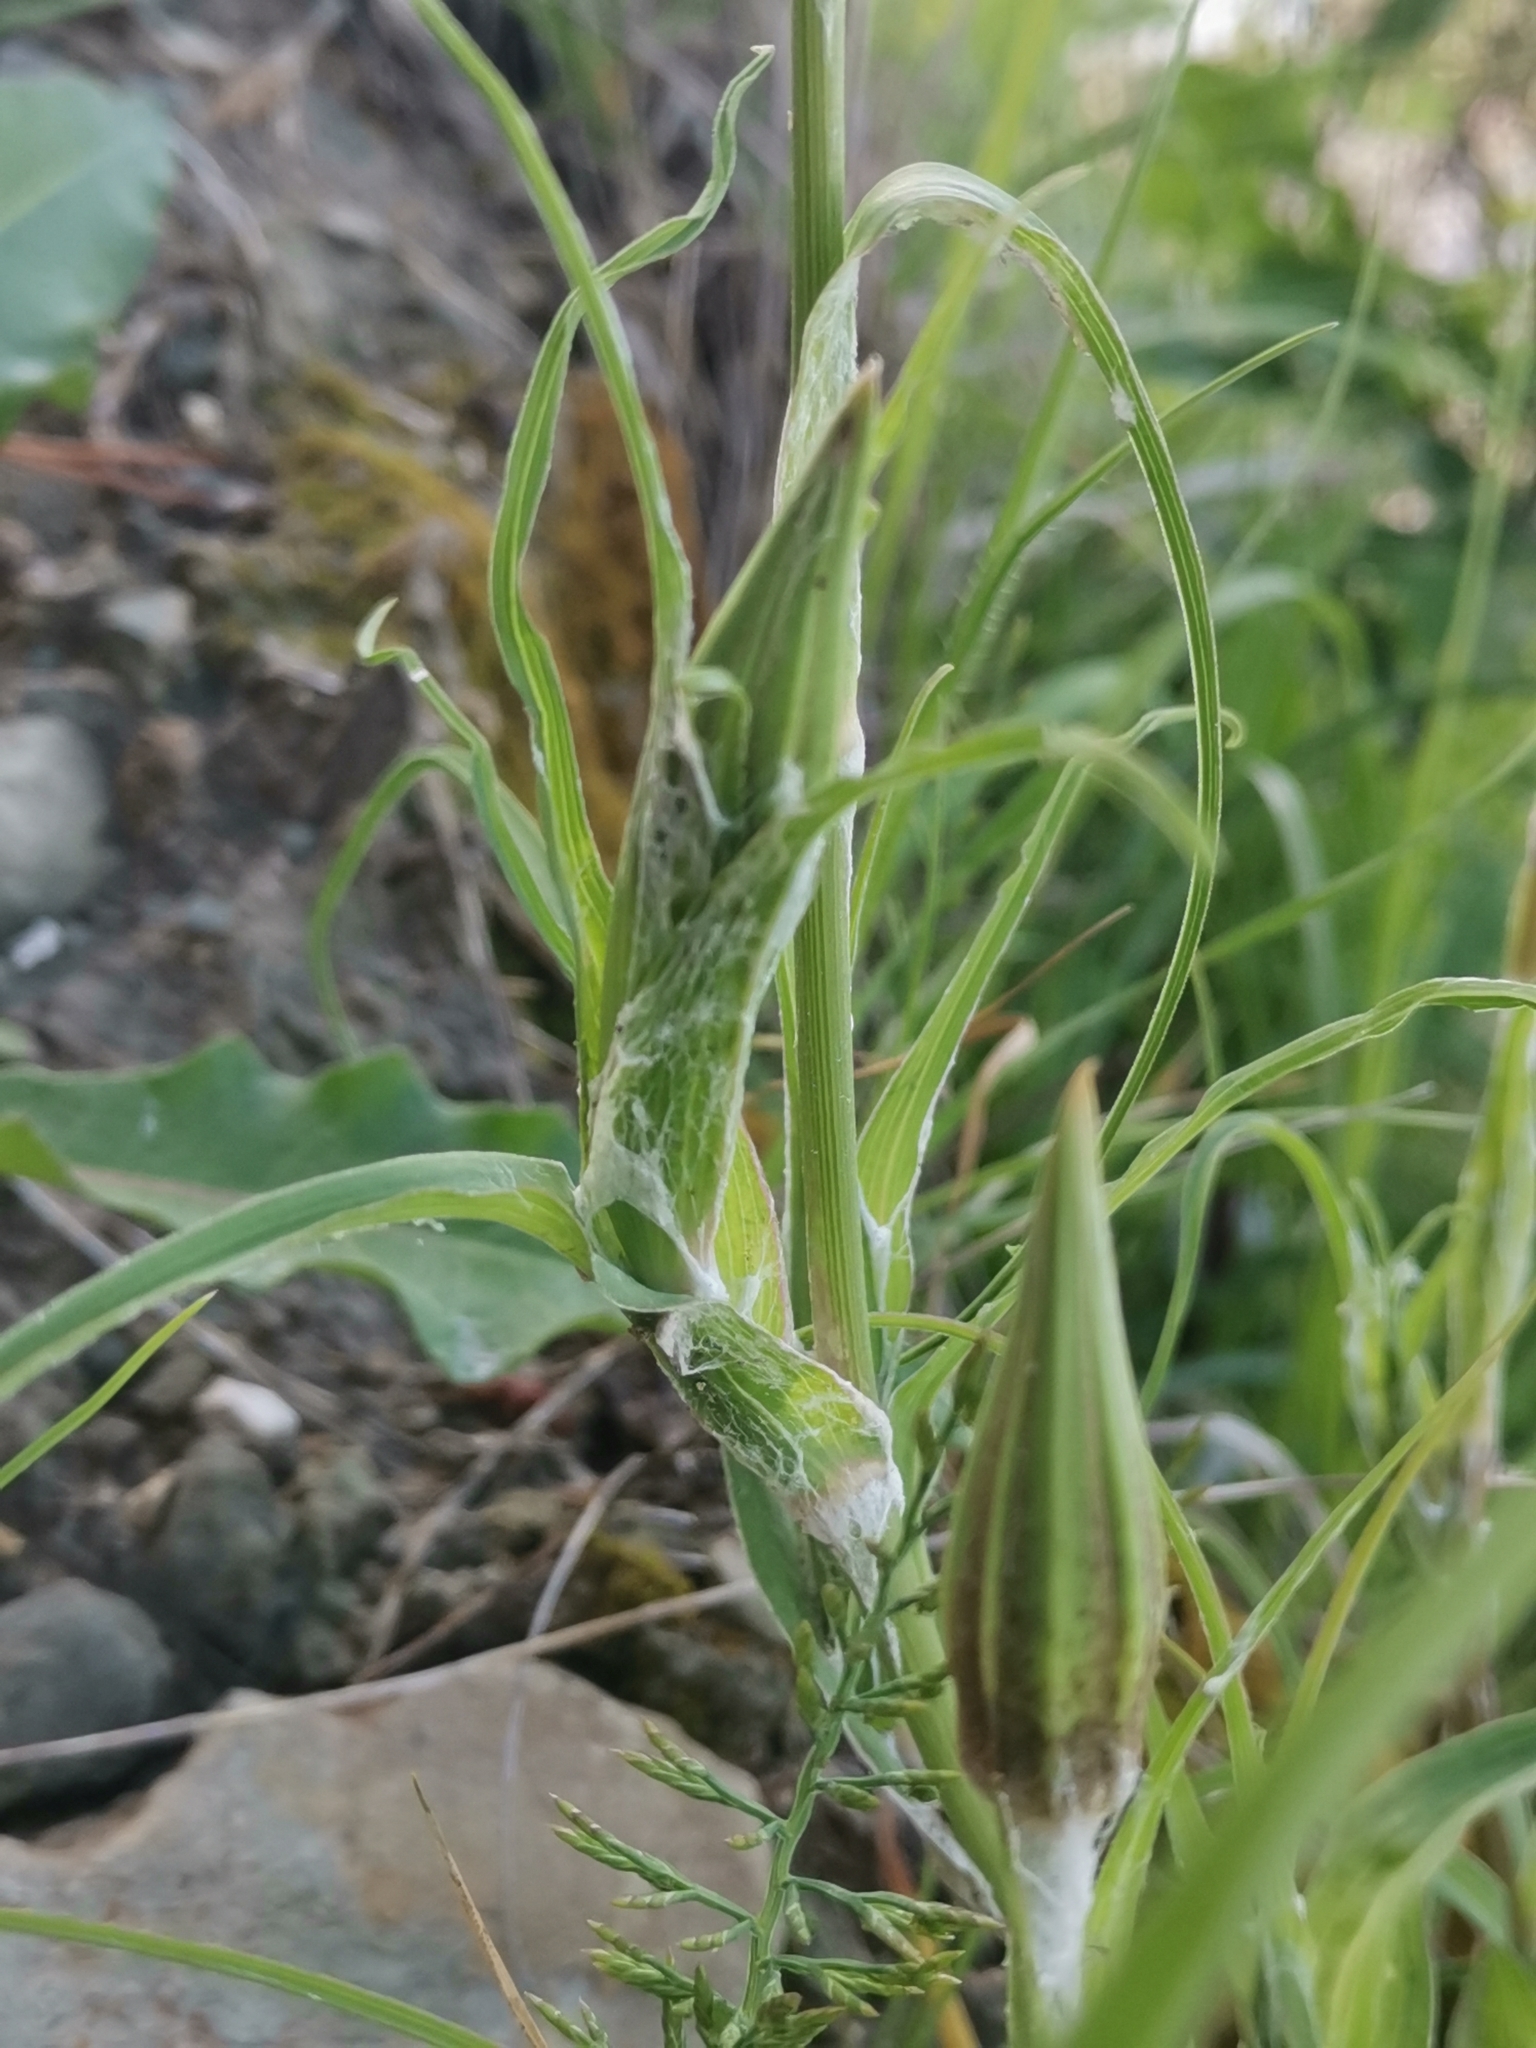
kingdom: Plantae
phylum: Tracheophyta
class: Magnoliopsida
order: Asterales
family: Asteraceae
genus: Tragopogon
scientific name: Tragopogon tommasinii
